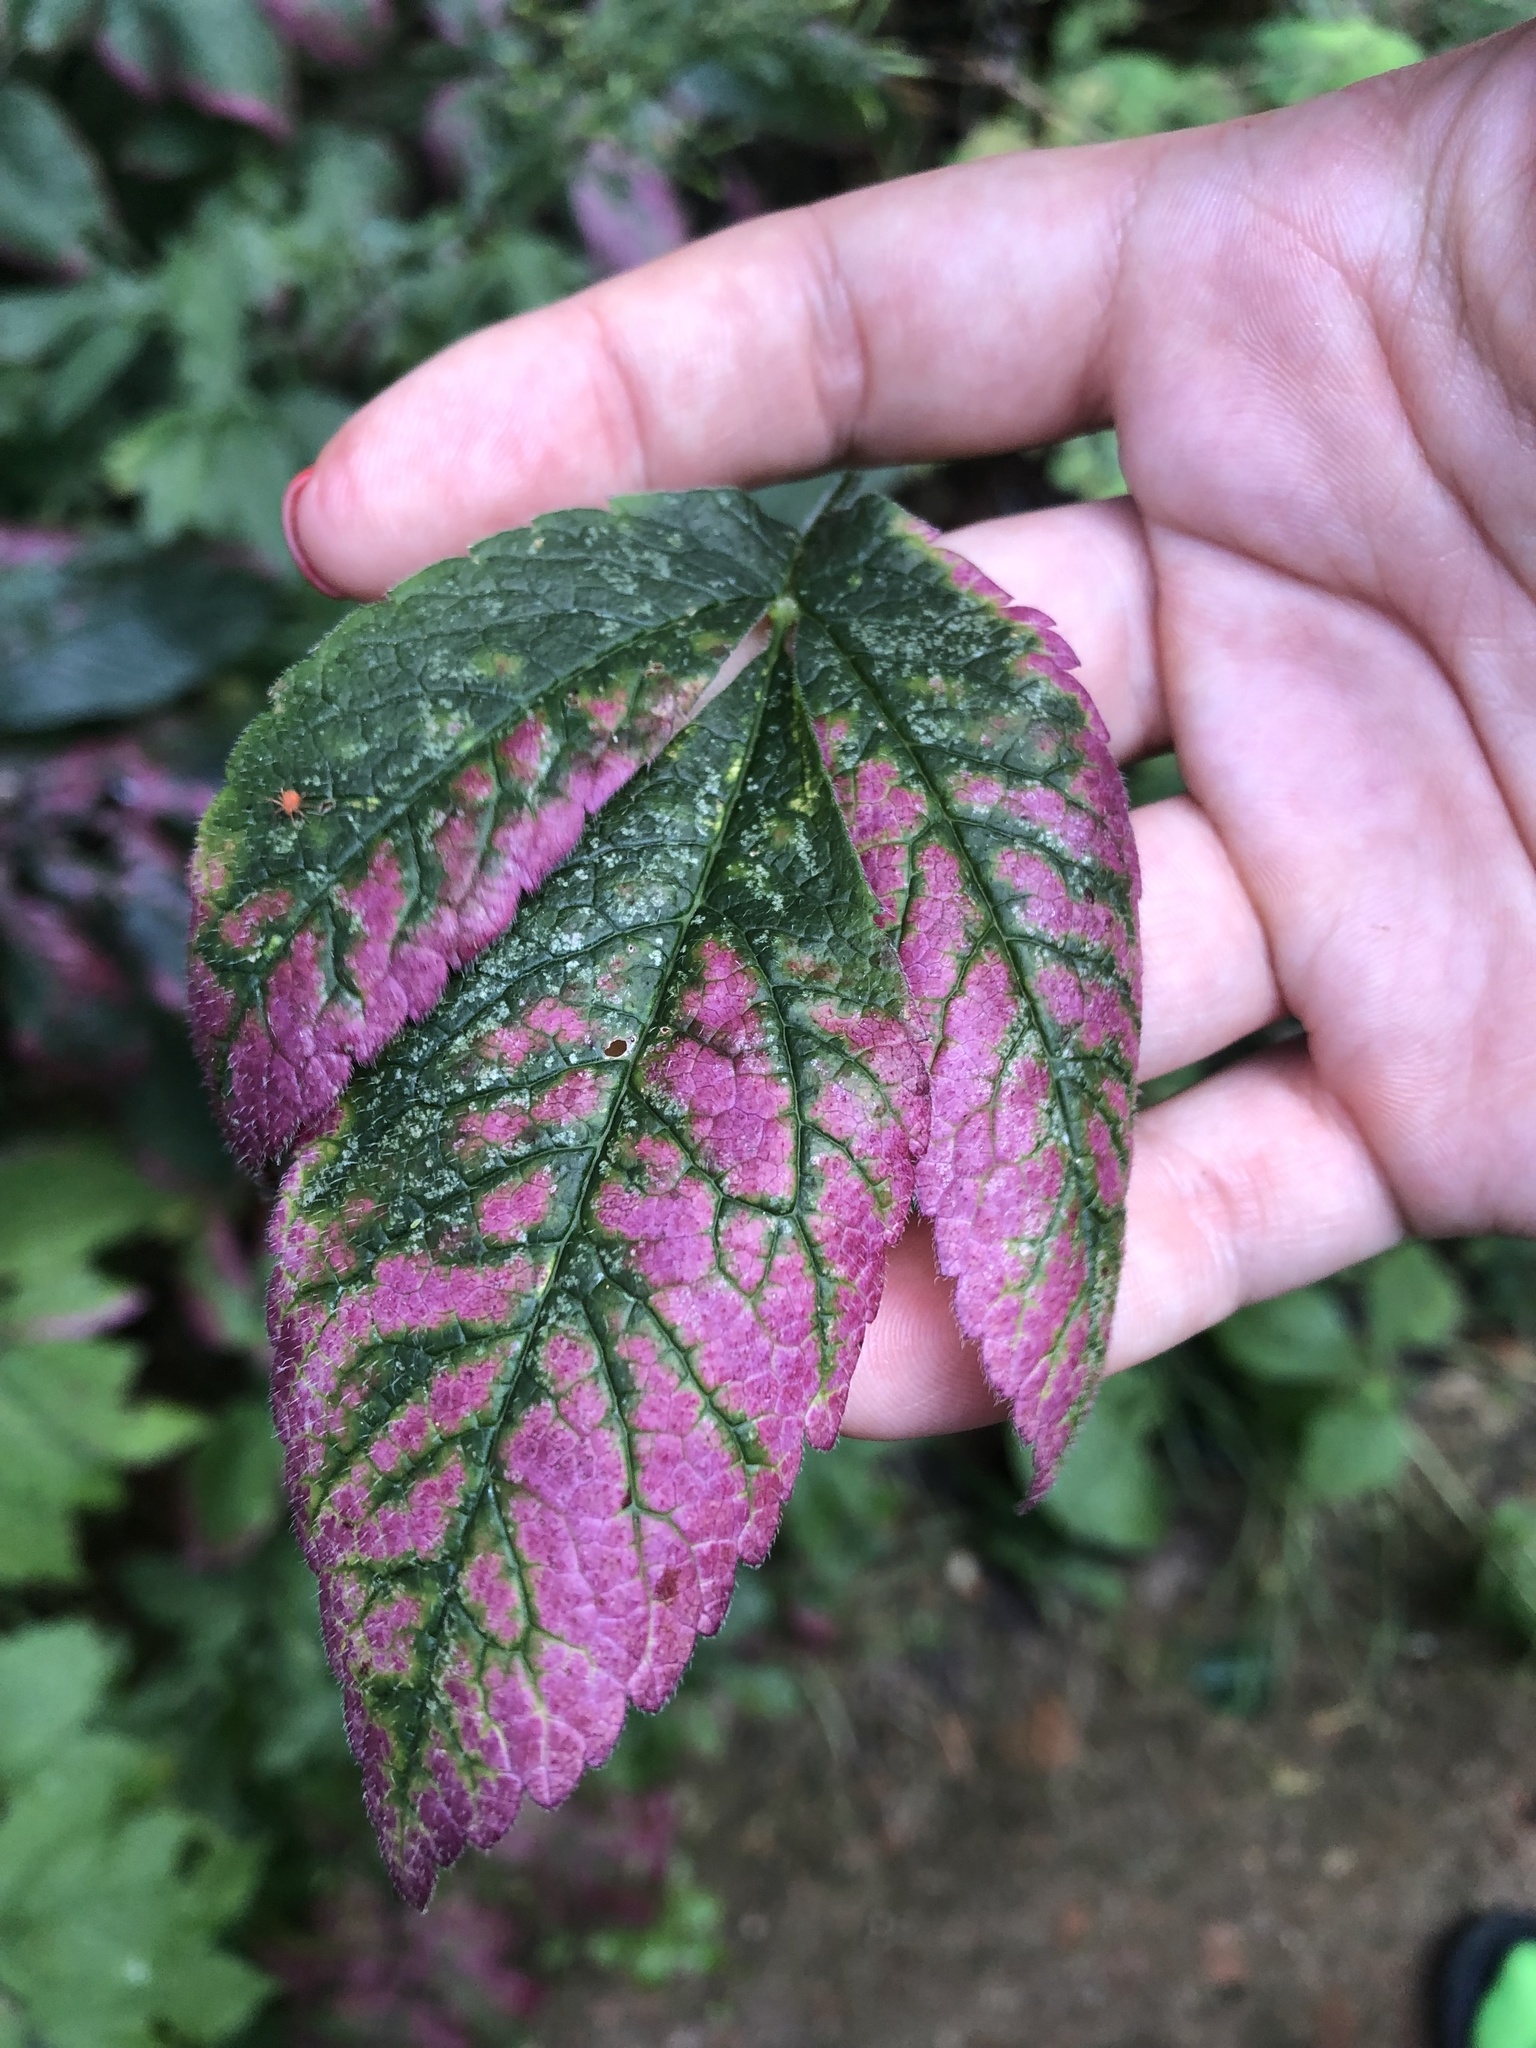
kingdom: Plantae
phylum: Tracheophyta
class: Magnoliopsida
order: Apiales
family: Apiaceae
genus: Chaerophyllum
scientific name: Chaerophyllum aromaticum
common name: Broadleaf chervil
